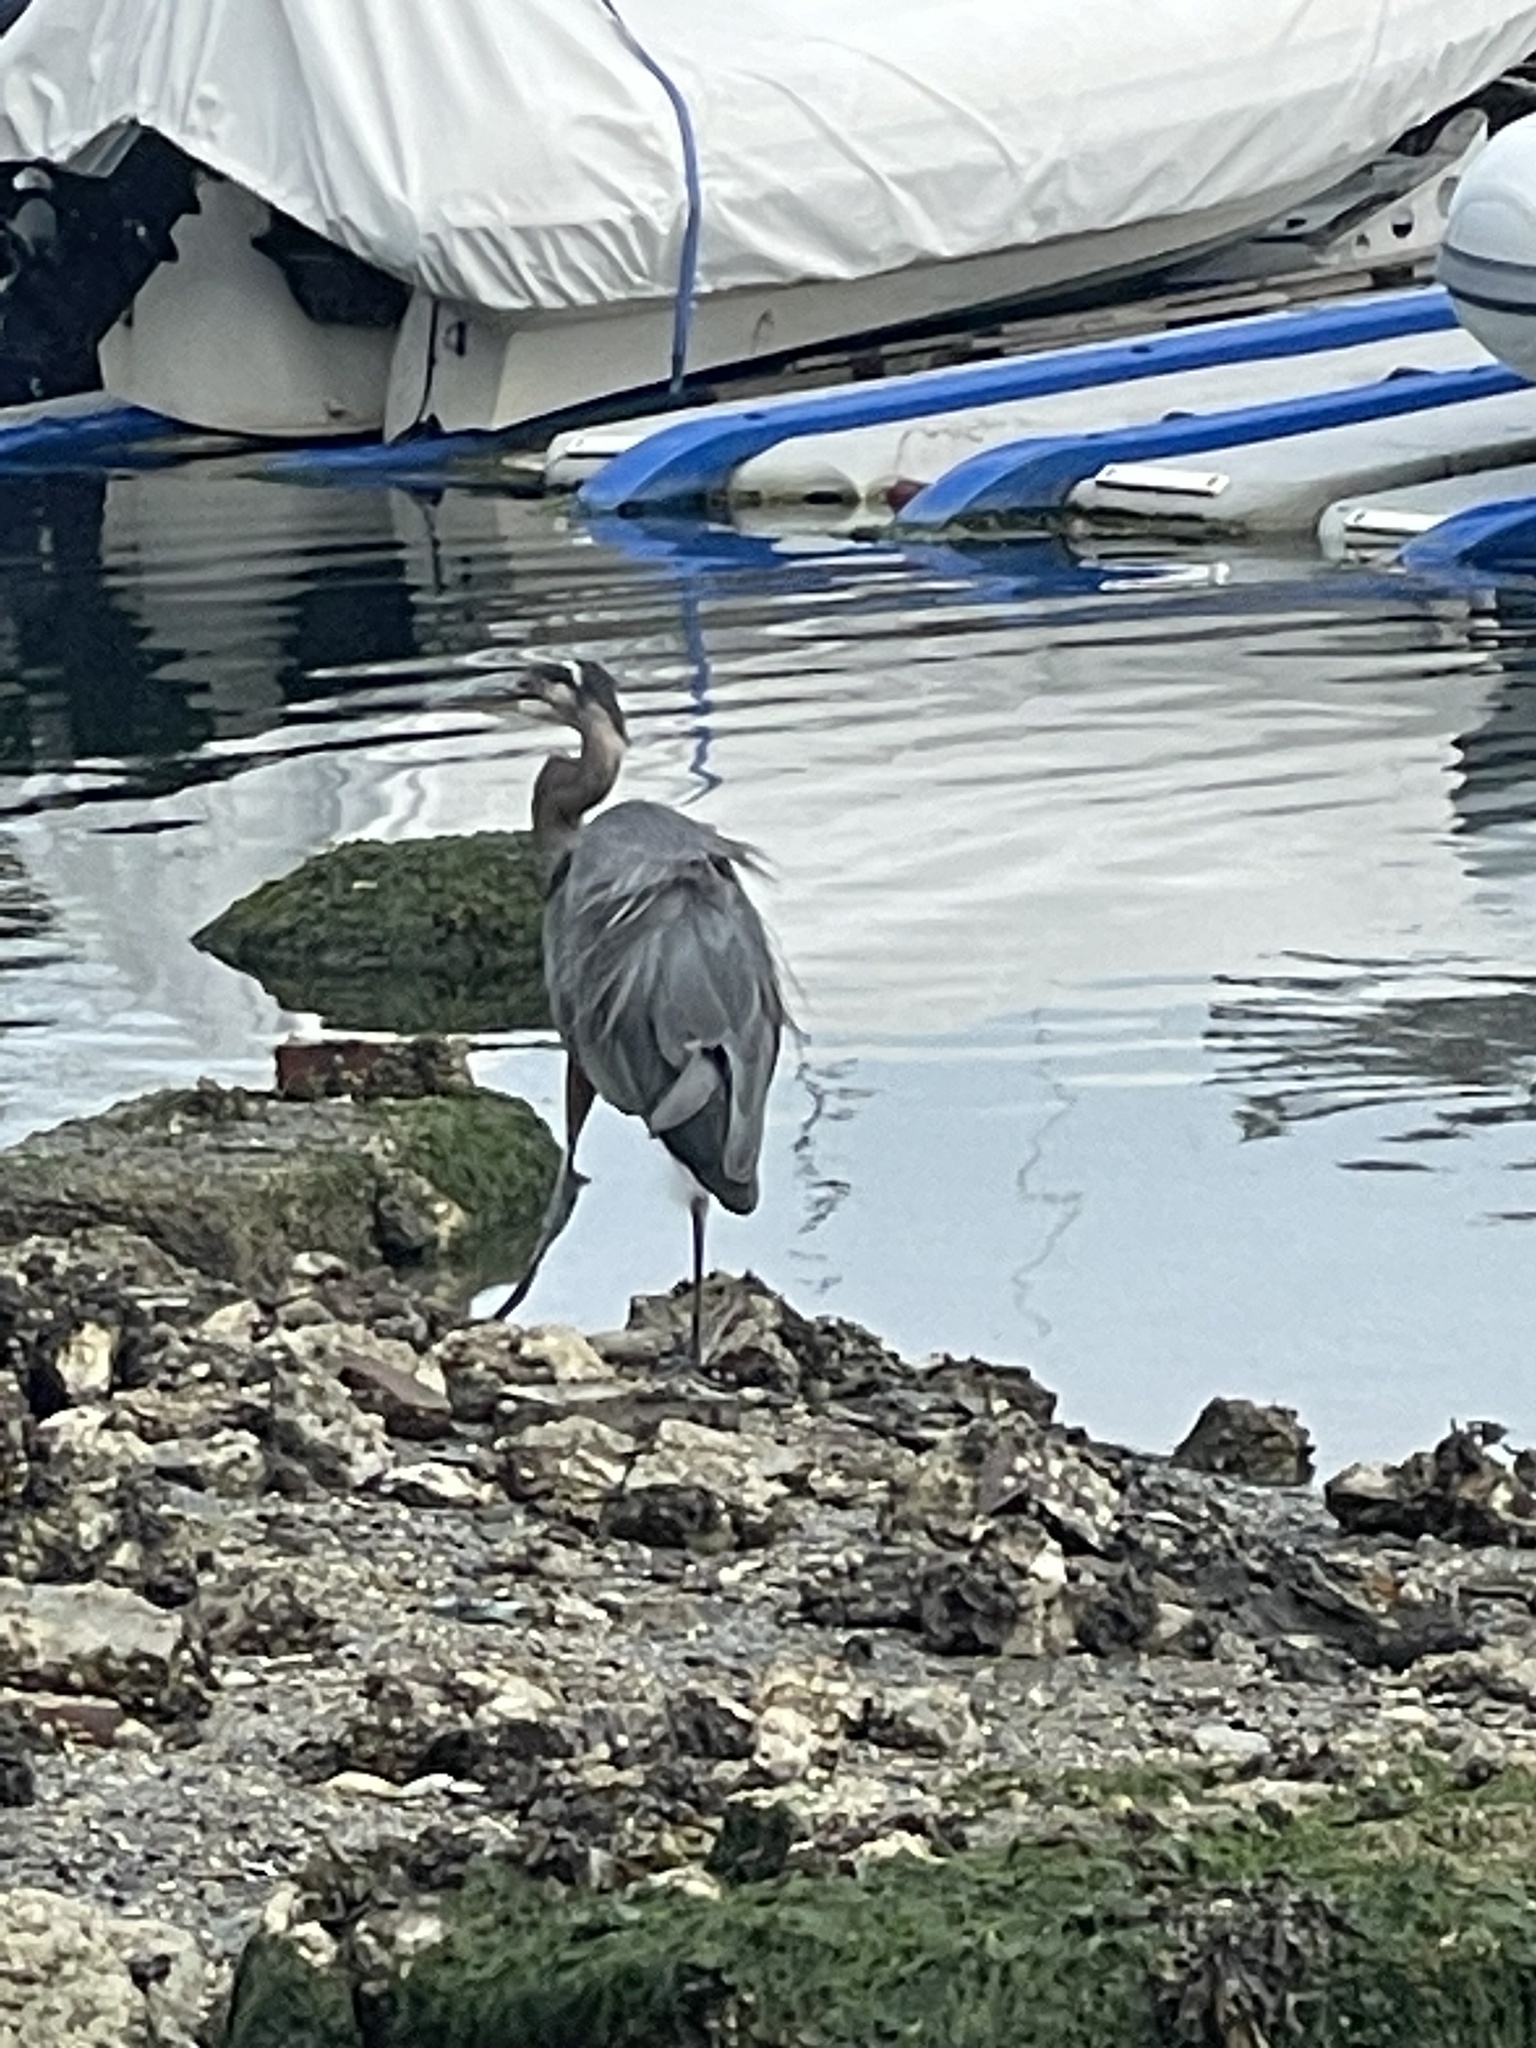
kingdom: Animalia
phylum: Chordata
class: Aves
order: Pelecaniformes
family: Ardeidae
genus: Ardea
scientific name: Ardea herodias
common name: Great blue heron
